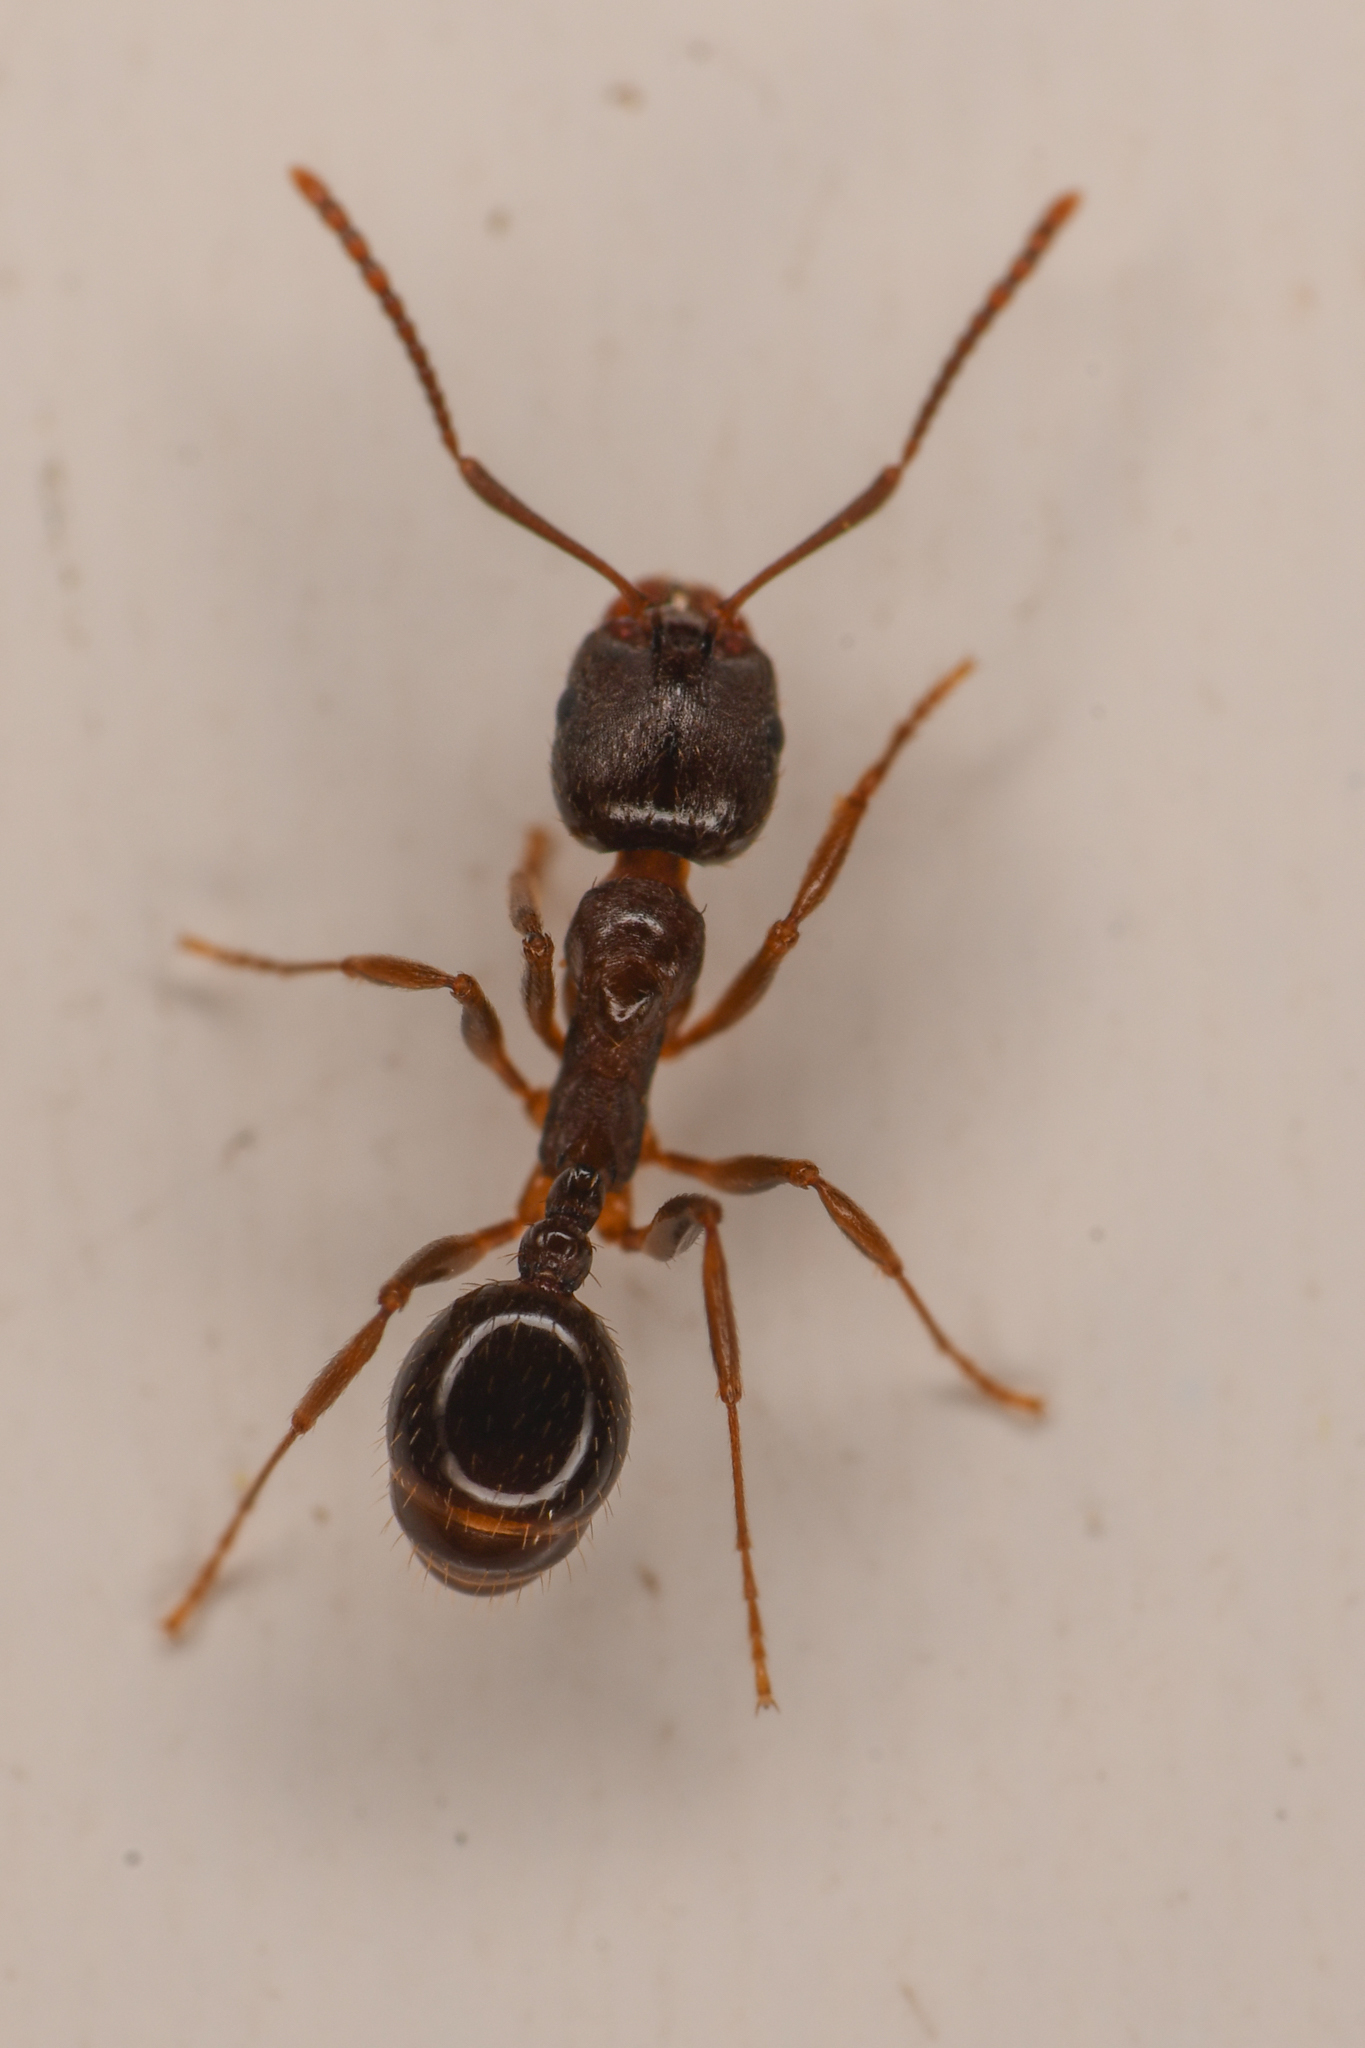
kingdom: Animalia
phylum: Arthropoda
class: Insecta
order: Hymenoptera
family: Formicidae
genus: Aphaenogaster
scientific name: Aphaenogaster occidentalis
